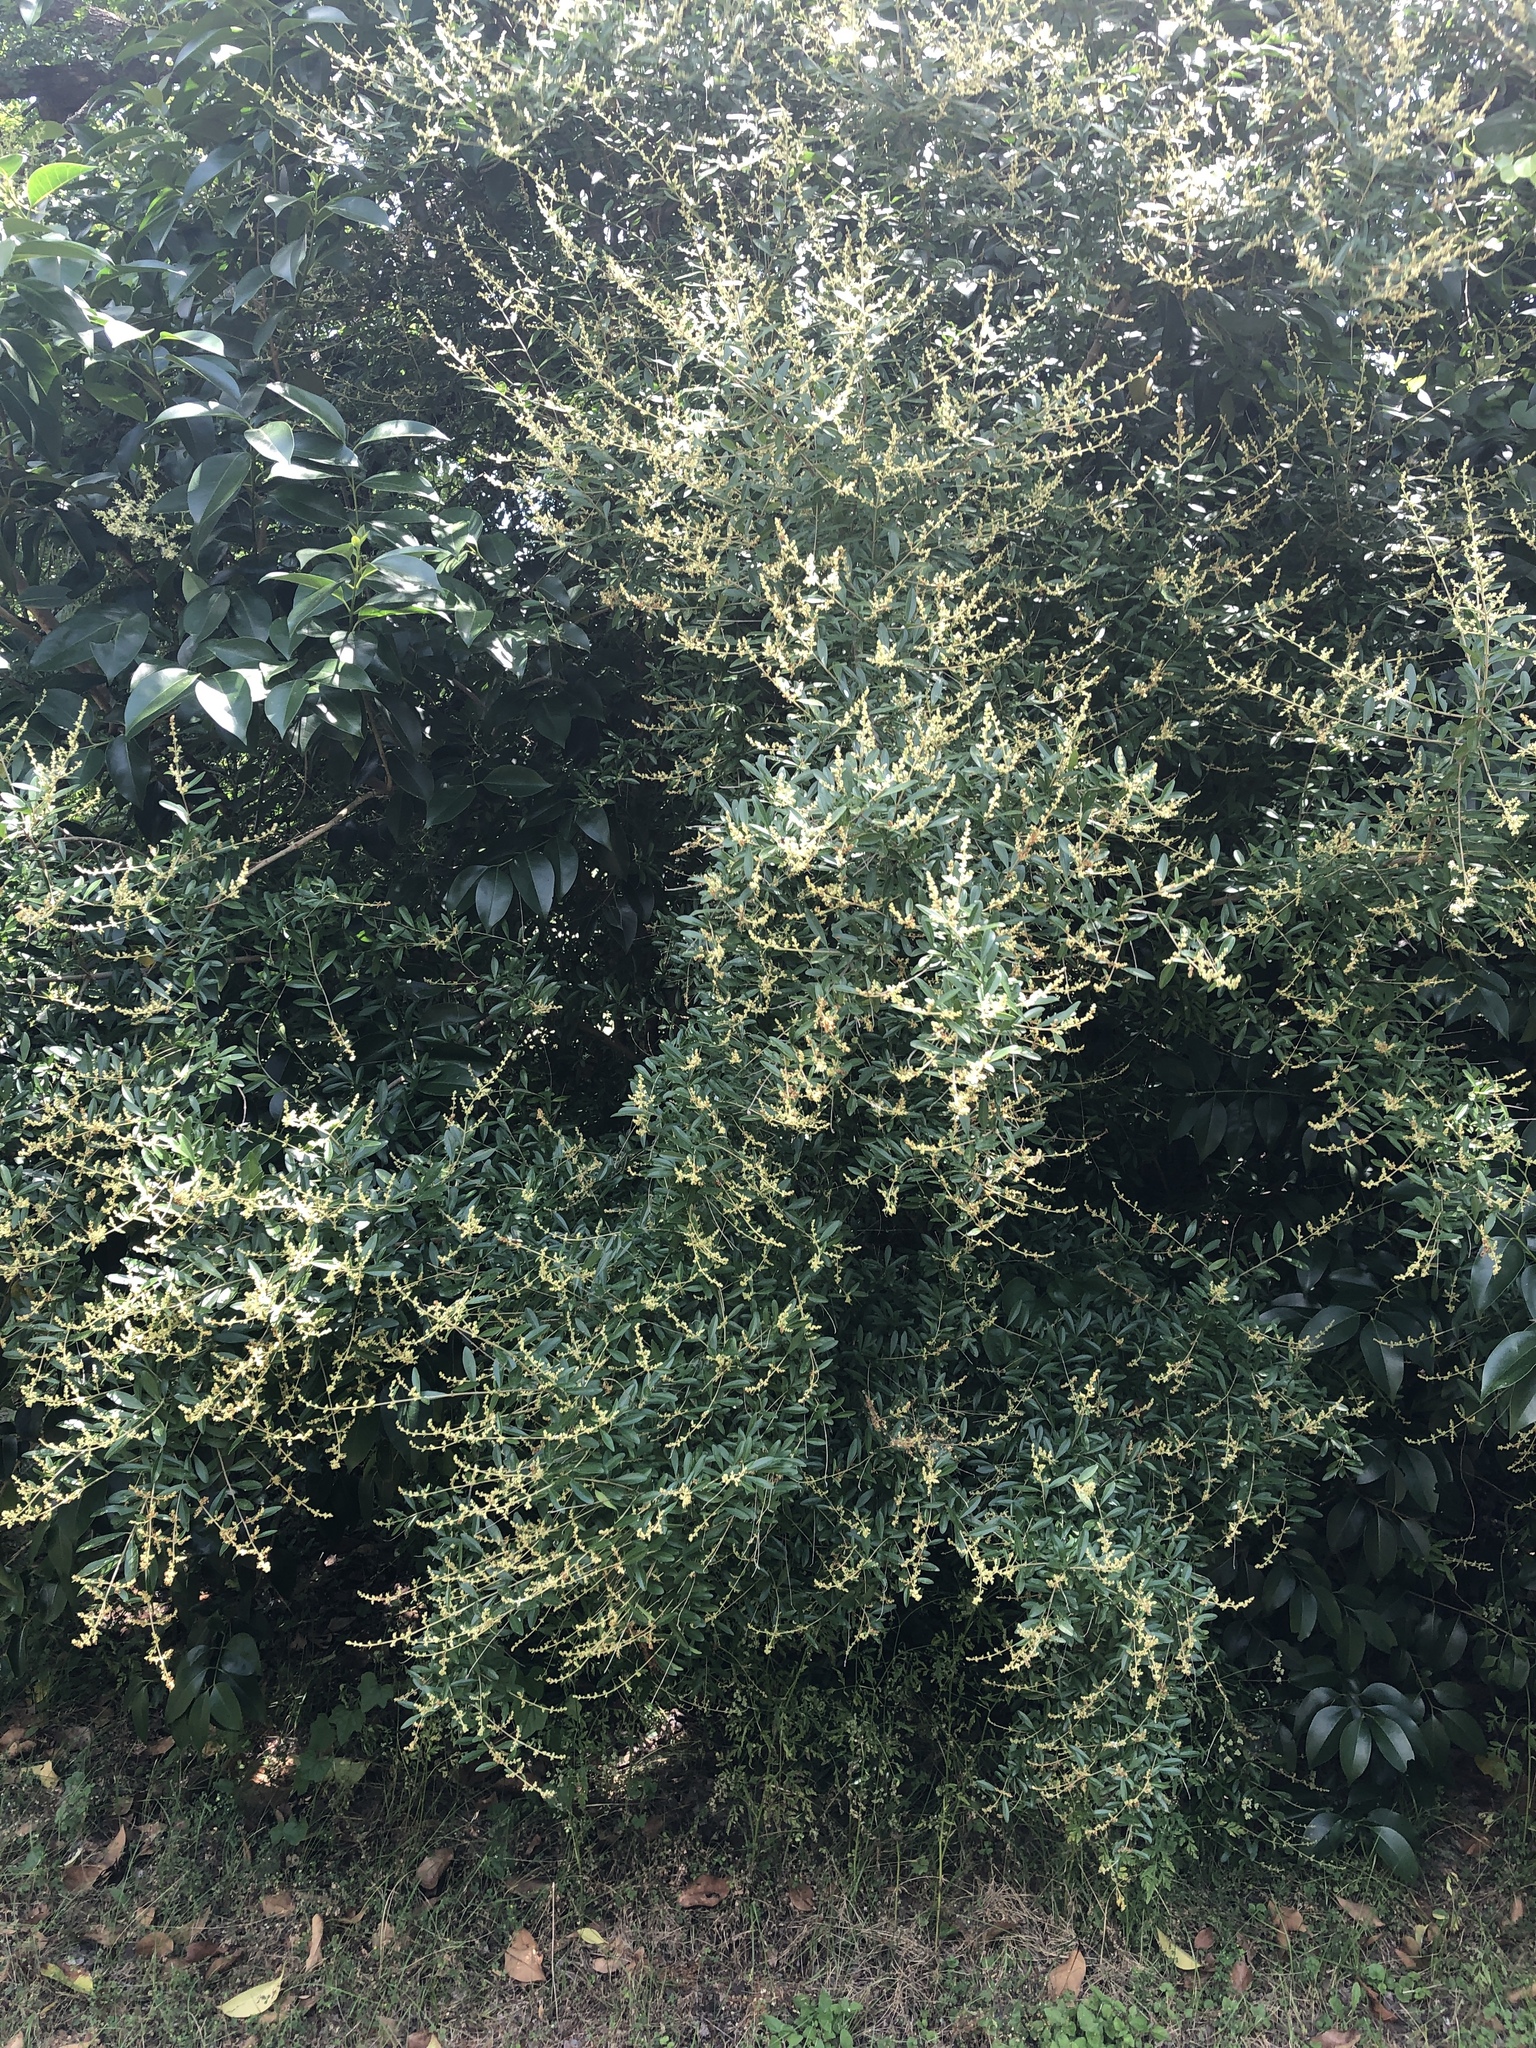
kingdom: Plantae
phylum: Tracheophyta
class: Magnoliopsida
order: Lamiales
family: Oleaceae
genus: Ligustrum
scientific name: Ligustrum quihoui
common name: Waxyleaf privet
